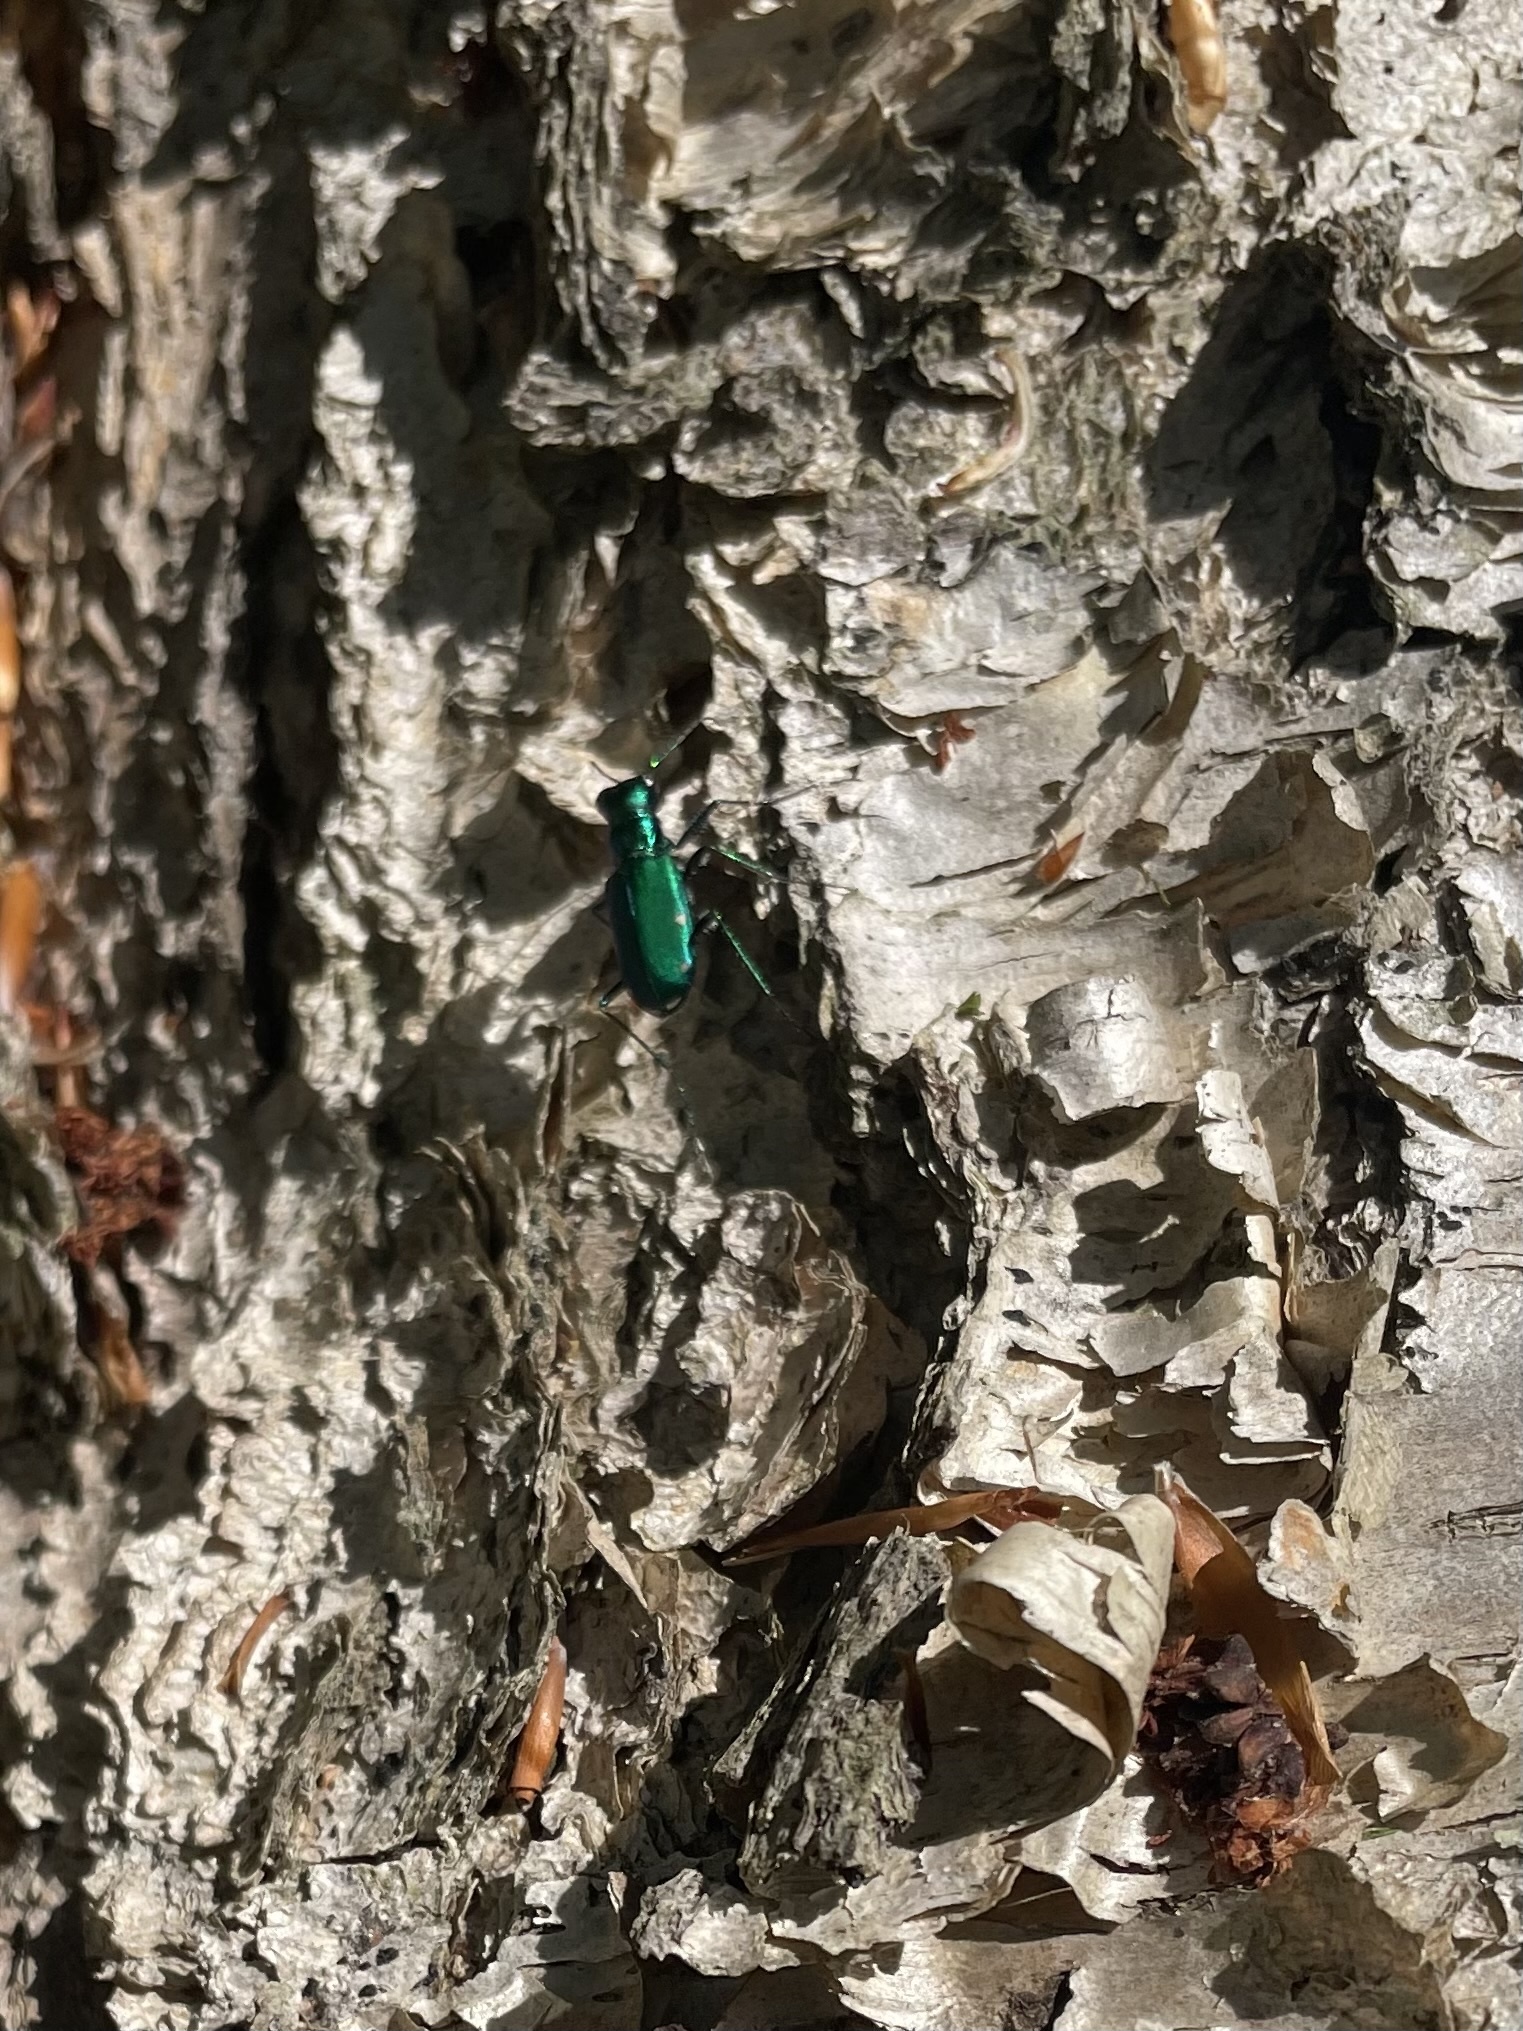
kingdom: Animalia
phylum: Arthropoda
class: Insecta
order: Coleoptera
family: Carabidae
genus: Cicindela
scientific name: Cicindela sexguttata
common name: Six-spotted tiger beetle
